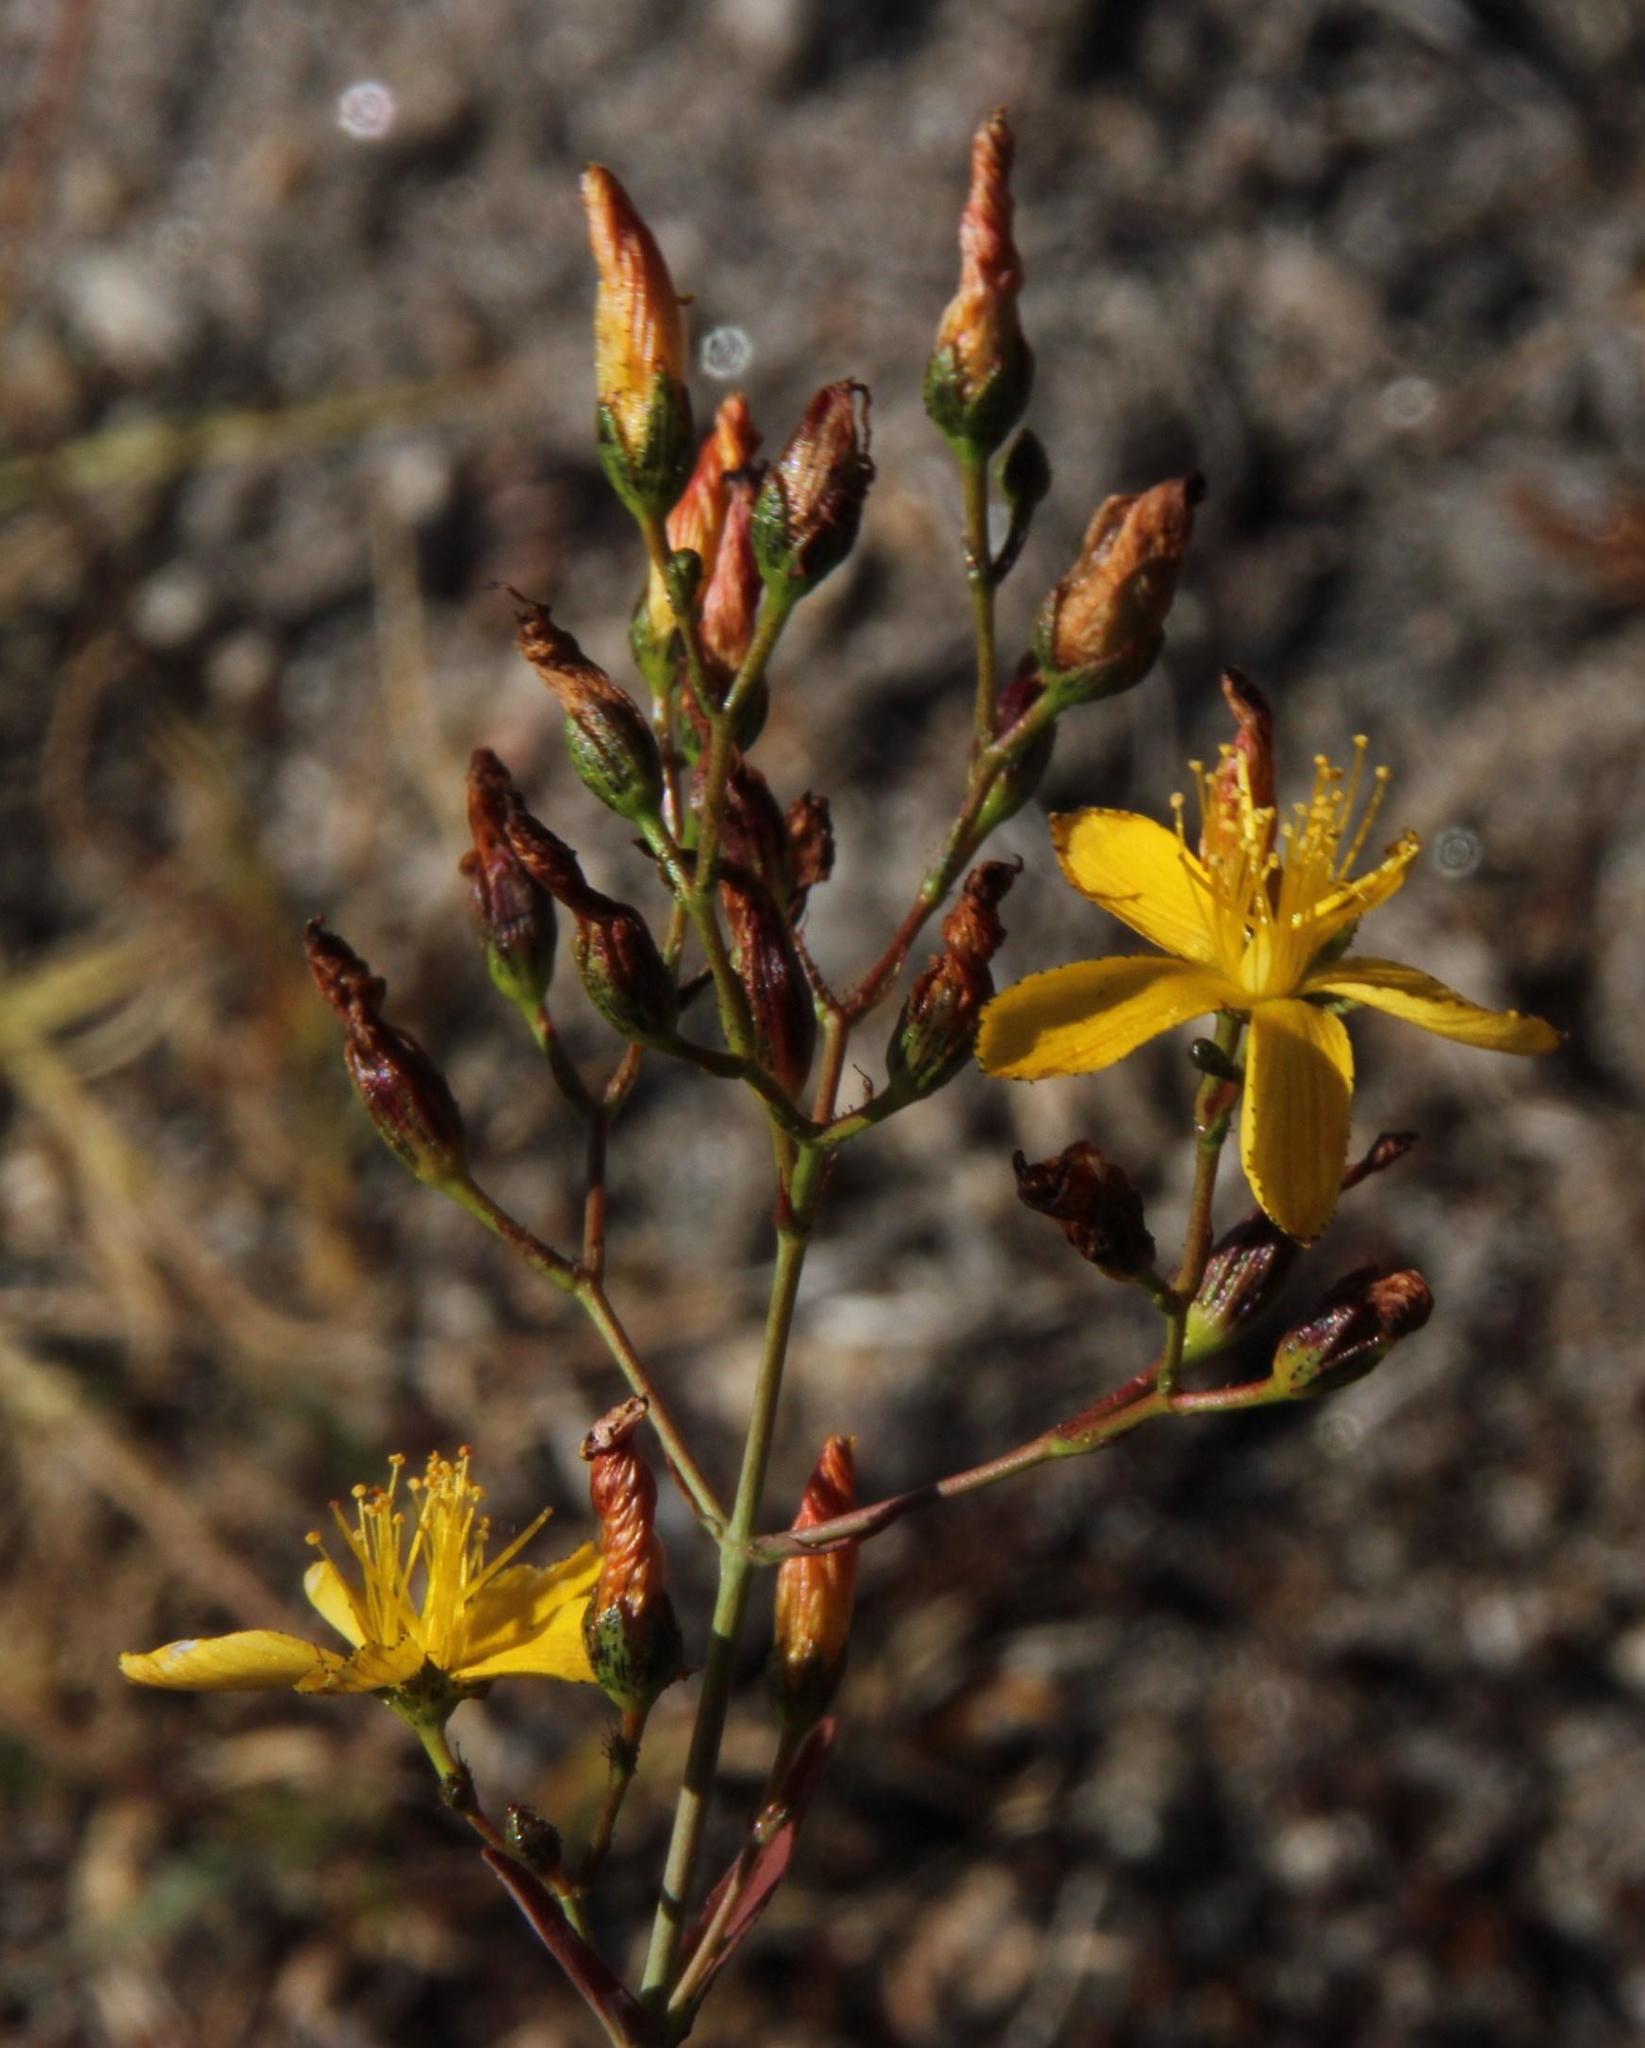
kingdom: Plantae
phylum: Tracheophyta
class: Magnoliopsida
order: Malpighiales
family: Hypericaceae
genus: Hypericum
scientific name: Hypericum linariifolium
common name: Toadflax-leaved st. john's-wort
